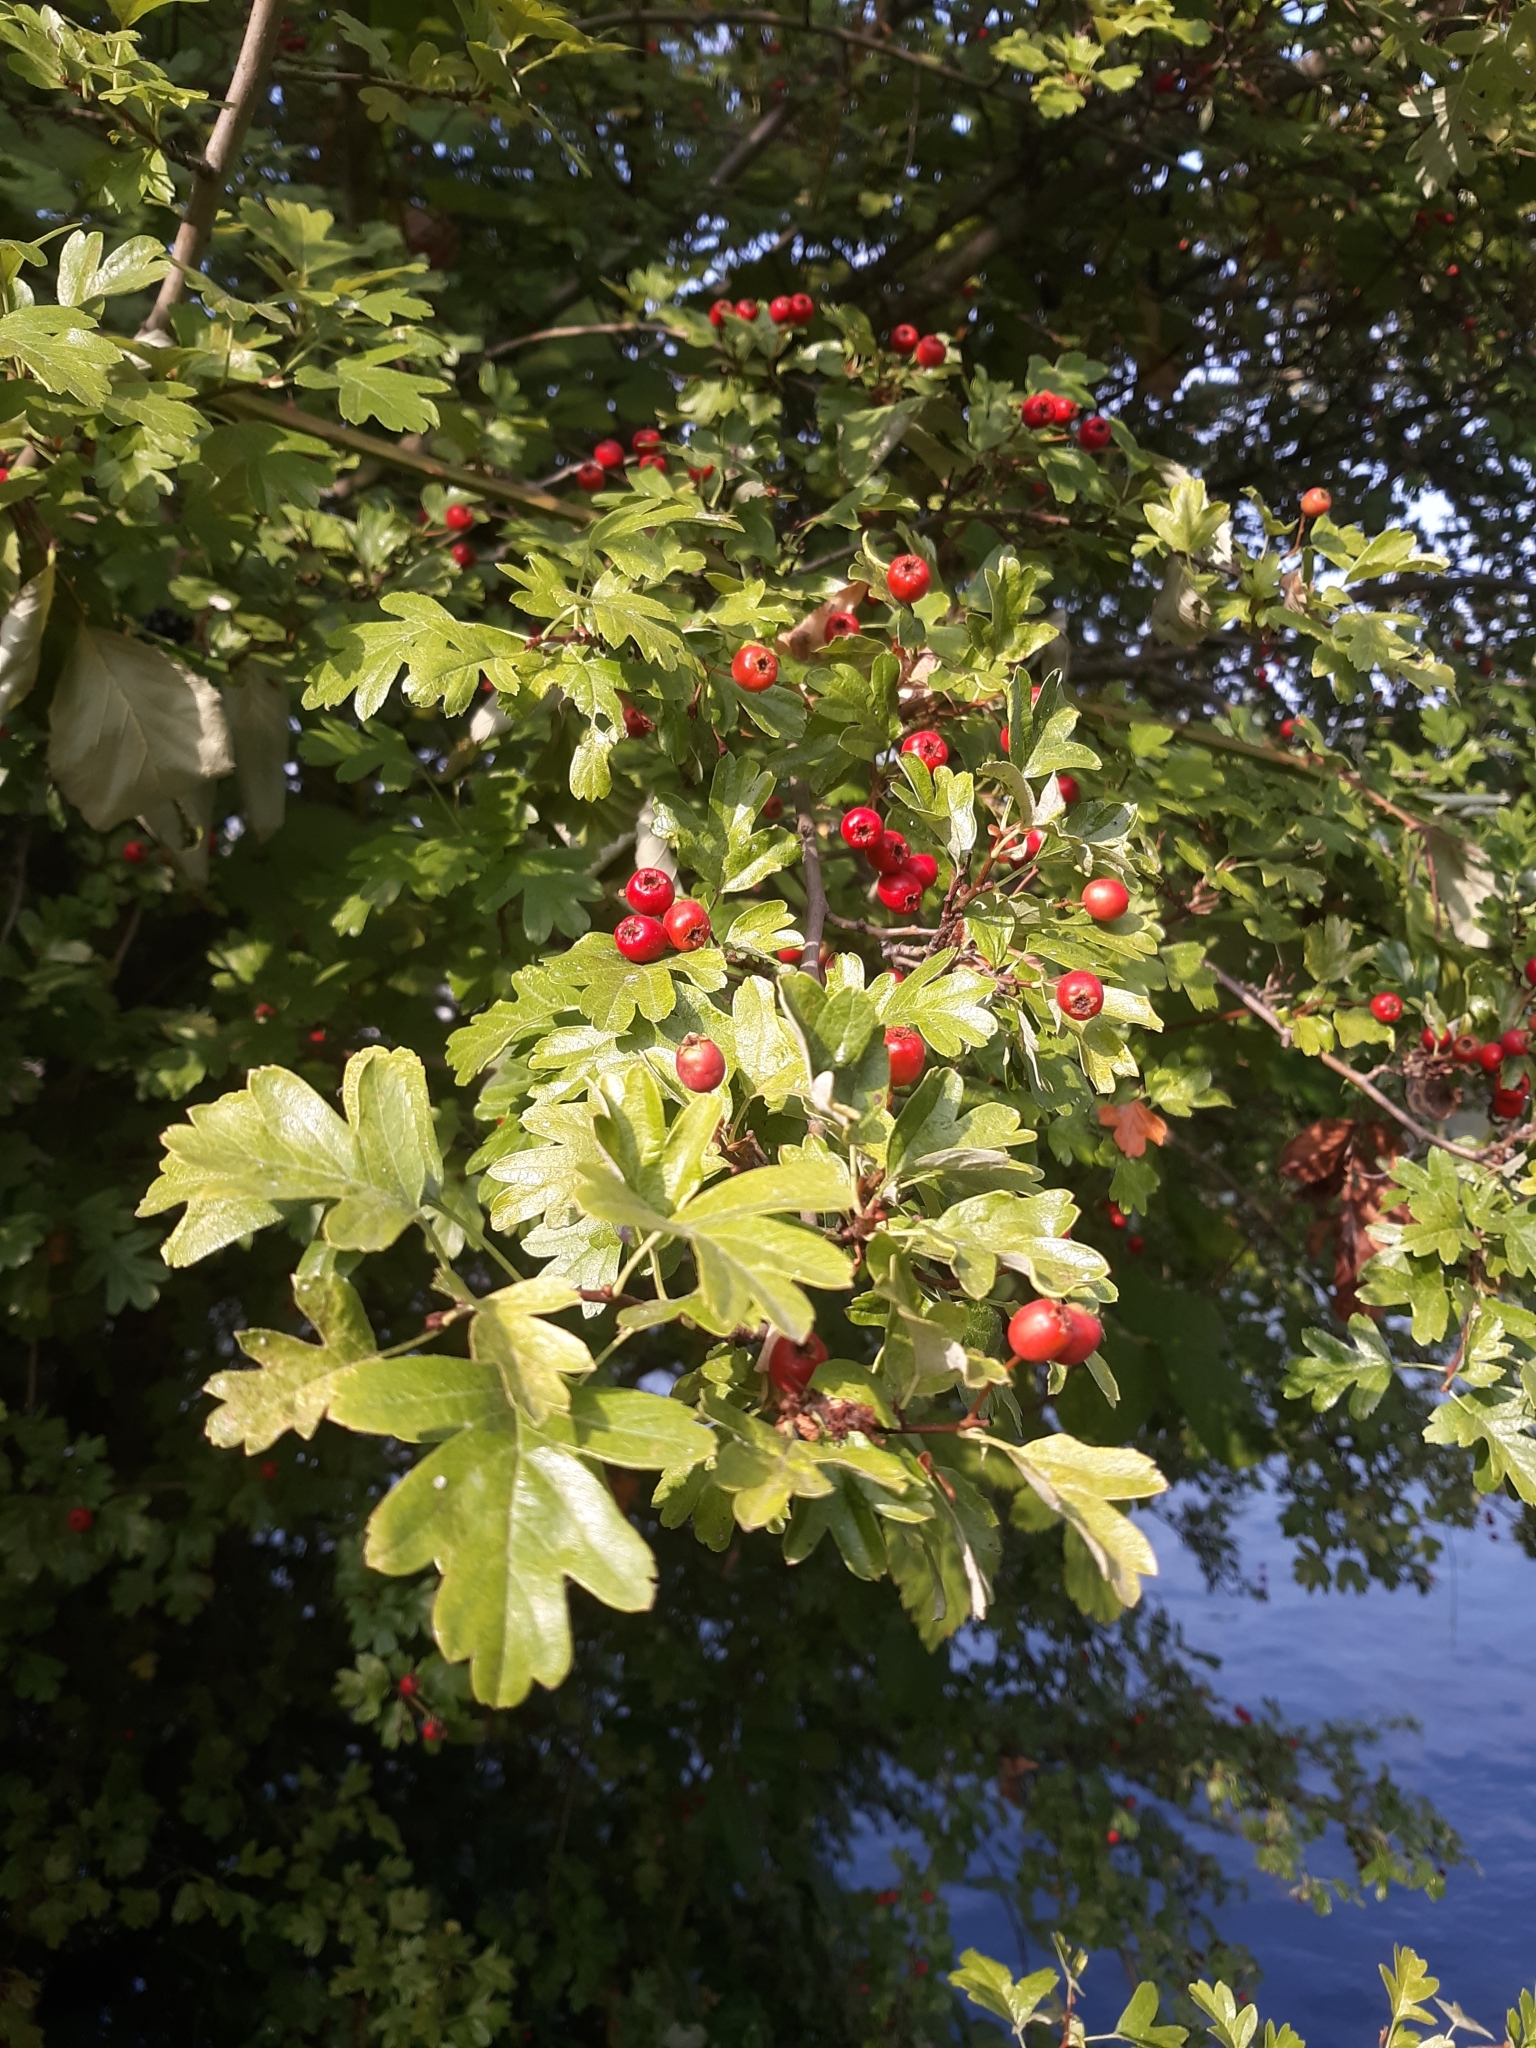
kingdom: Plantae
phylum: Tracheophyta
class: Magnoliopsida
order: Rosales
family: Rosaceae
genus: Crataegus
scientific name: Crataegus monogyna
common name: Hawthorn
